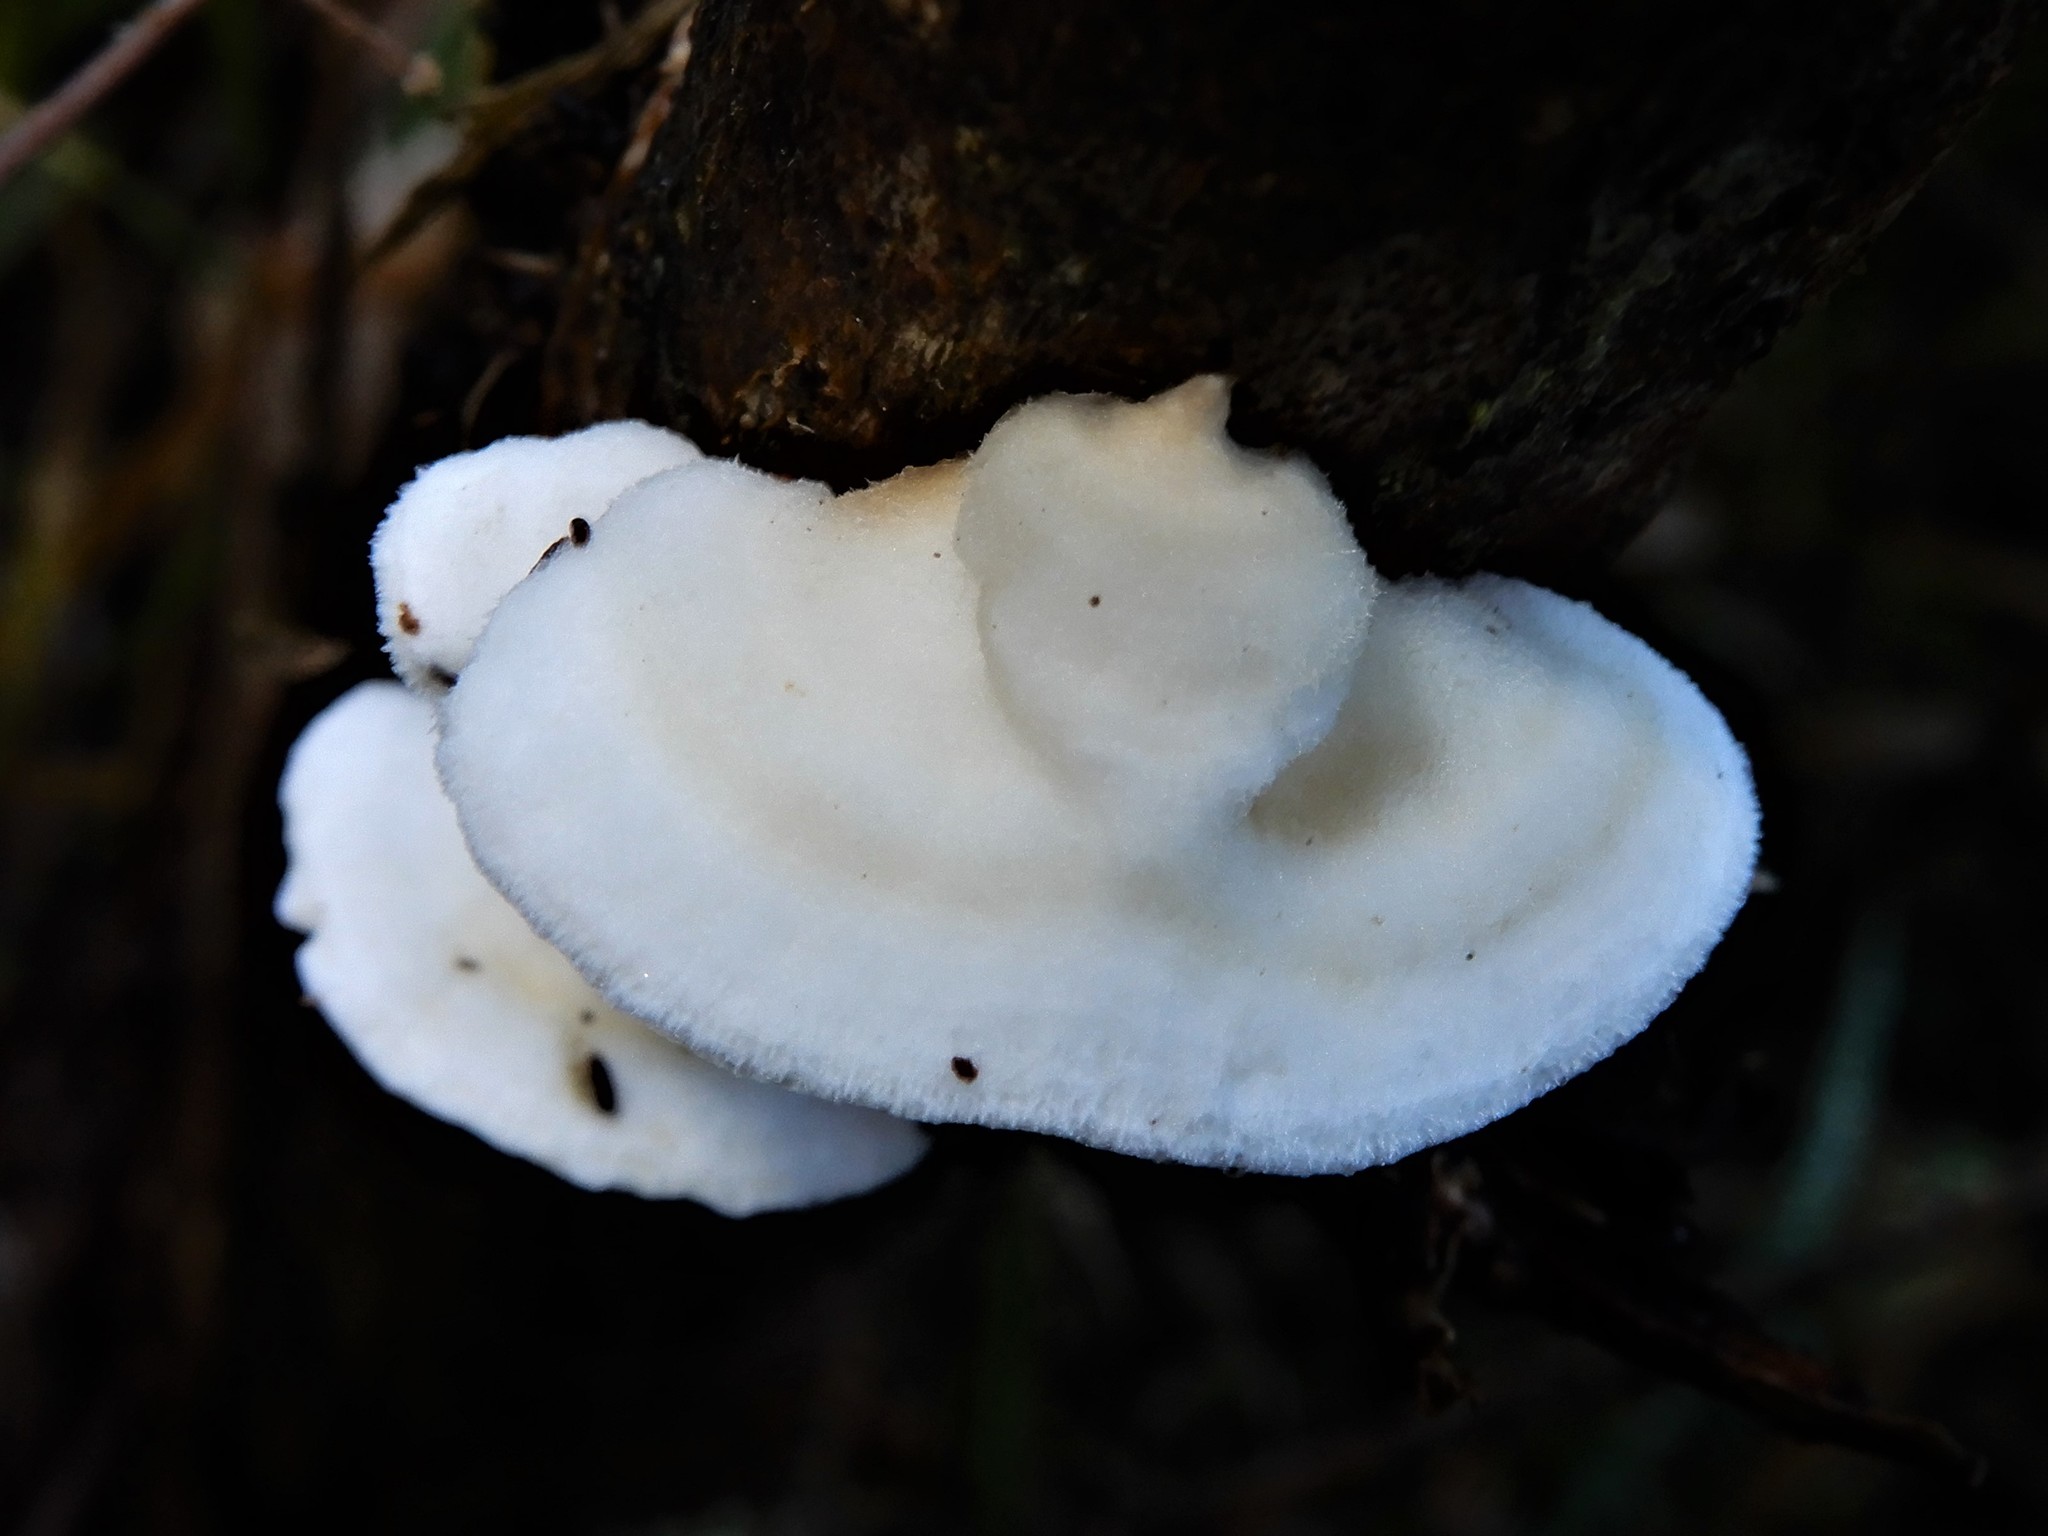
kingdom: Fungi
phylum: Basidiomycota
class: Agaricomycetes
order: Polyporales
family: Irpicaceae
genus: Byssomerulius
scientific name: Byssomerulius corium
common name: Netted crust
